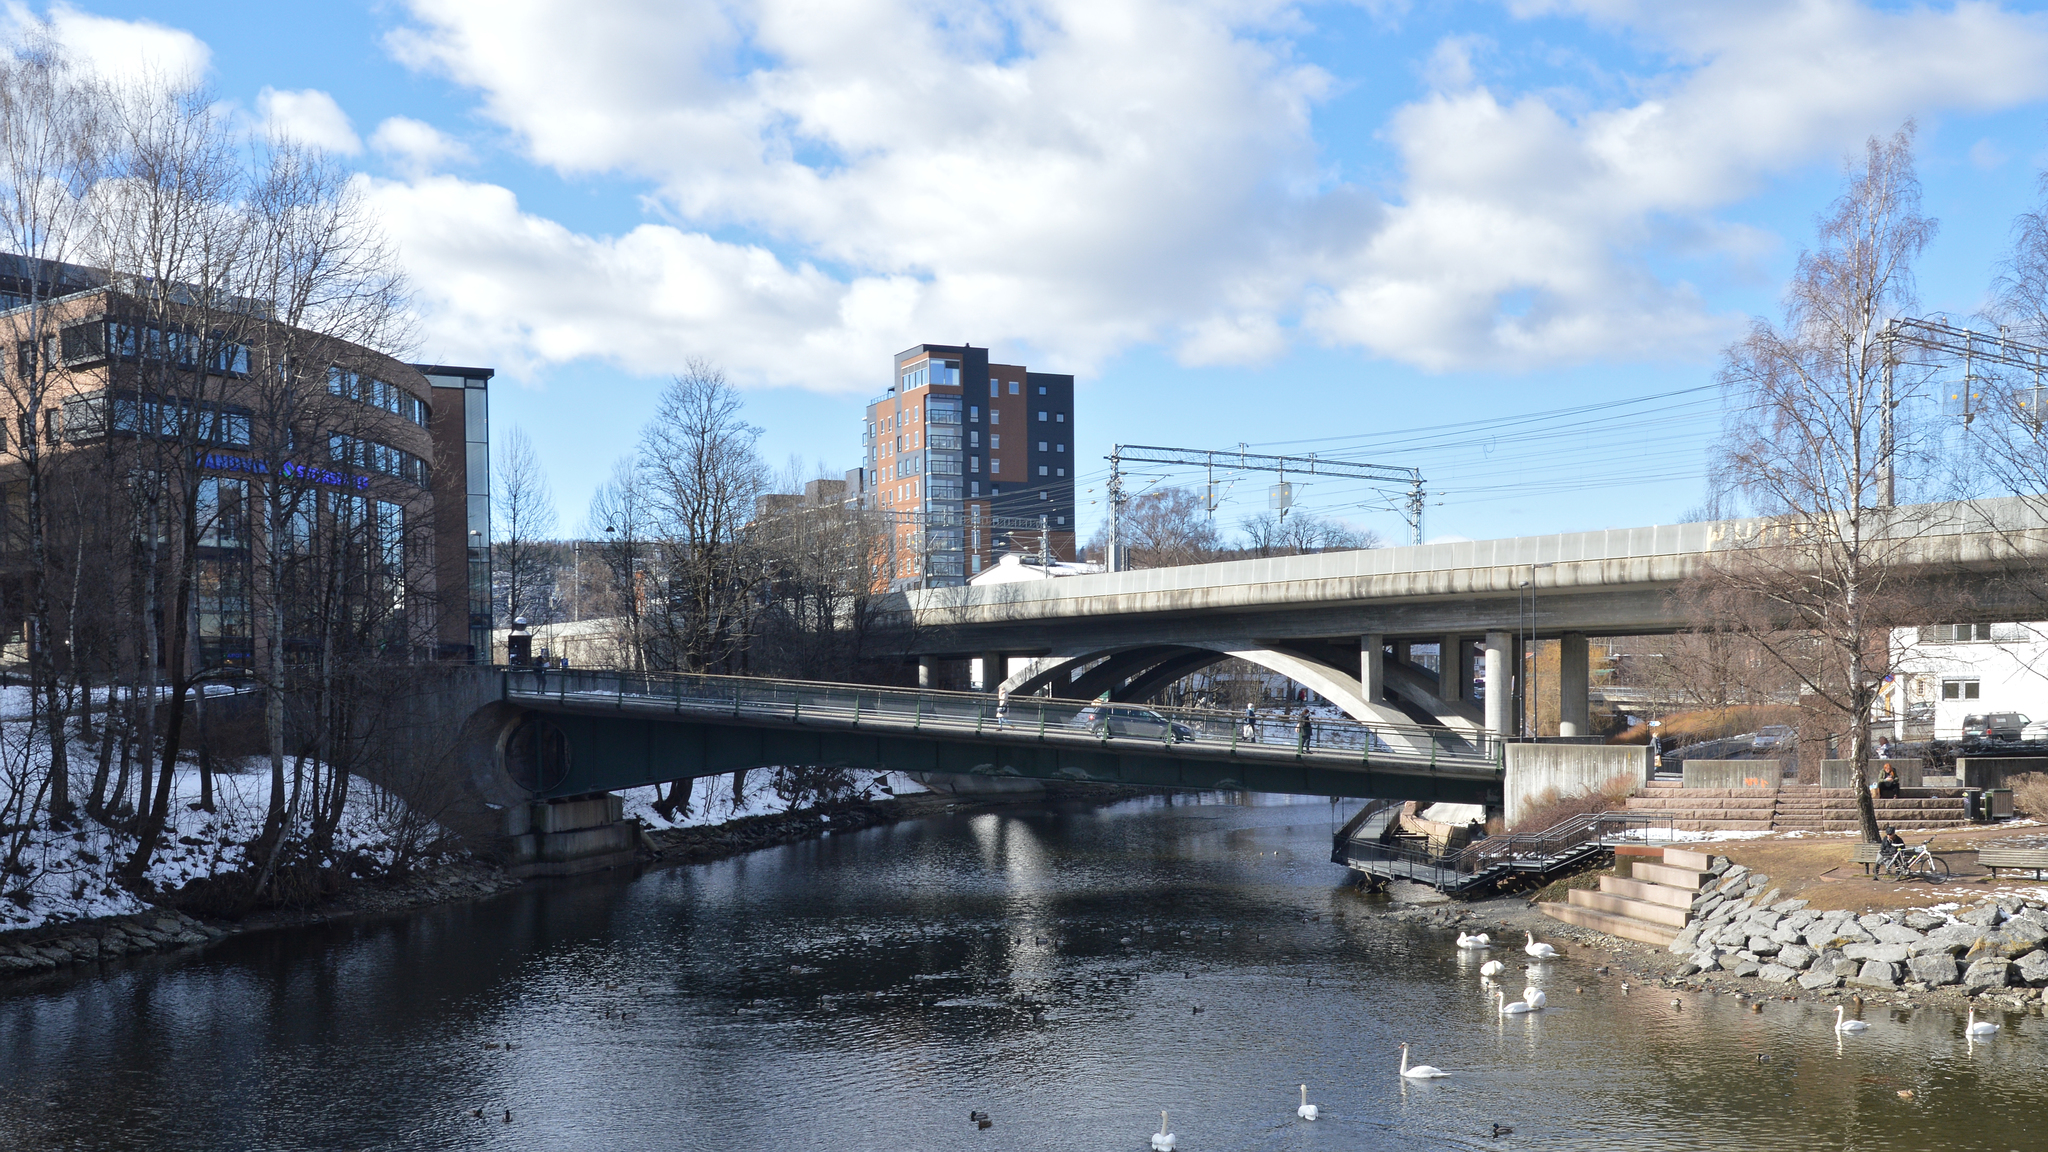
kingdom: Animalia
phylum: Chordata
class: Aves
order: Anseriformes
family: Anatidae
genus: Cygnus
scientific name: Cygnus olor
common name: Mute swan
